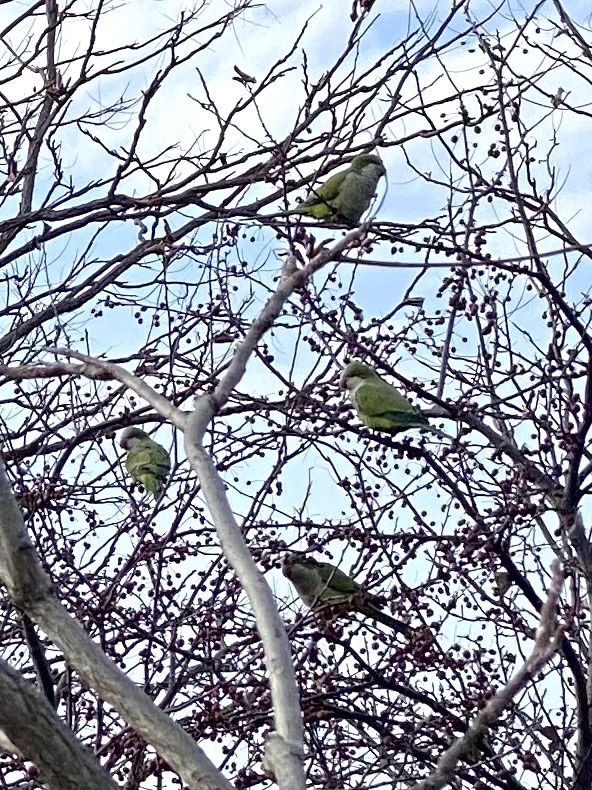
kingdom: Animalia
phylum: Chordata
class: Aves
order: Psittaciformes
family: Psittacidae
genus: Myiopsitta
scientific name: Myiopsitta monachus
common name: Monk parakeet
